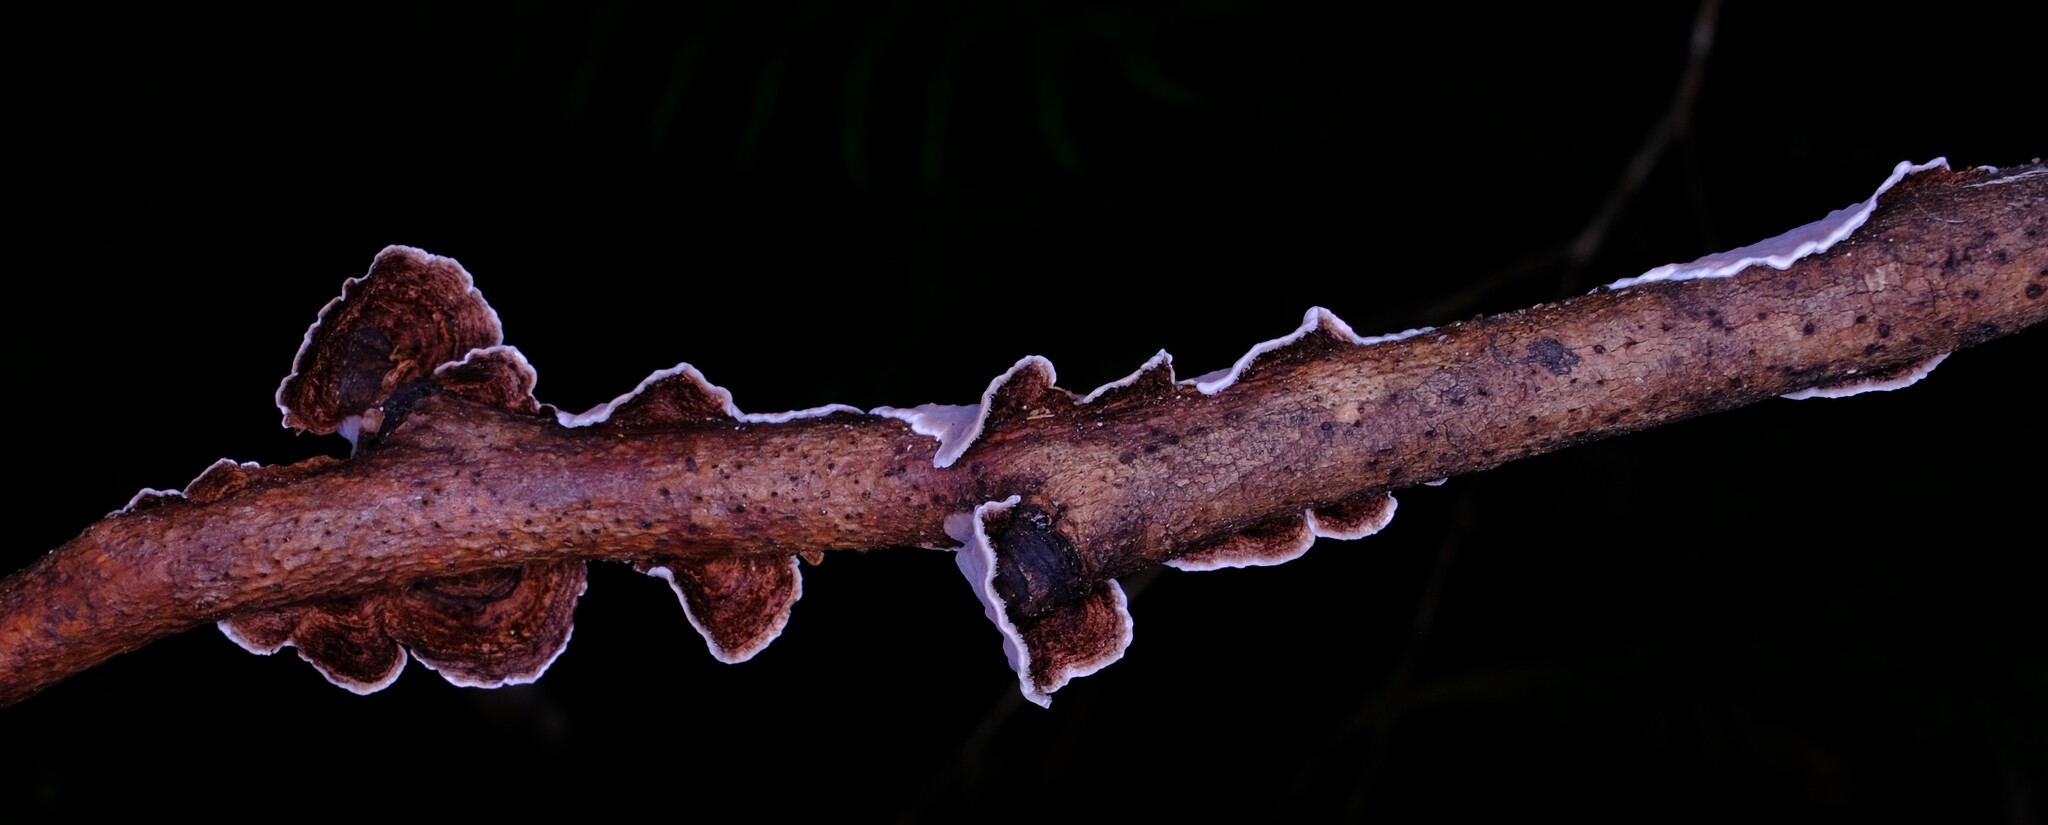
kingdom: Fungi
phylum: Basidiomycota
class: Agaricomycetes
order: Russulales
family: Stereaceae
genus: Xylobolus
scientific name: Xylobolus illudens
